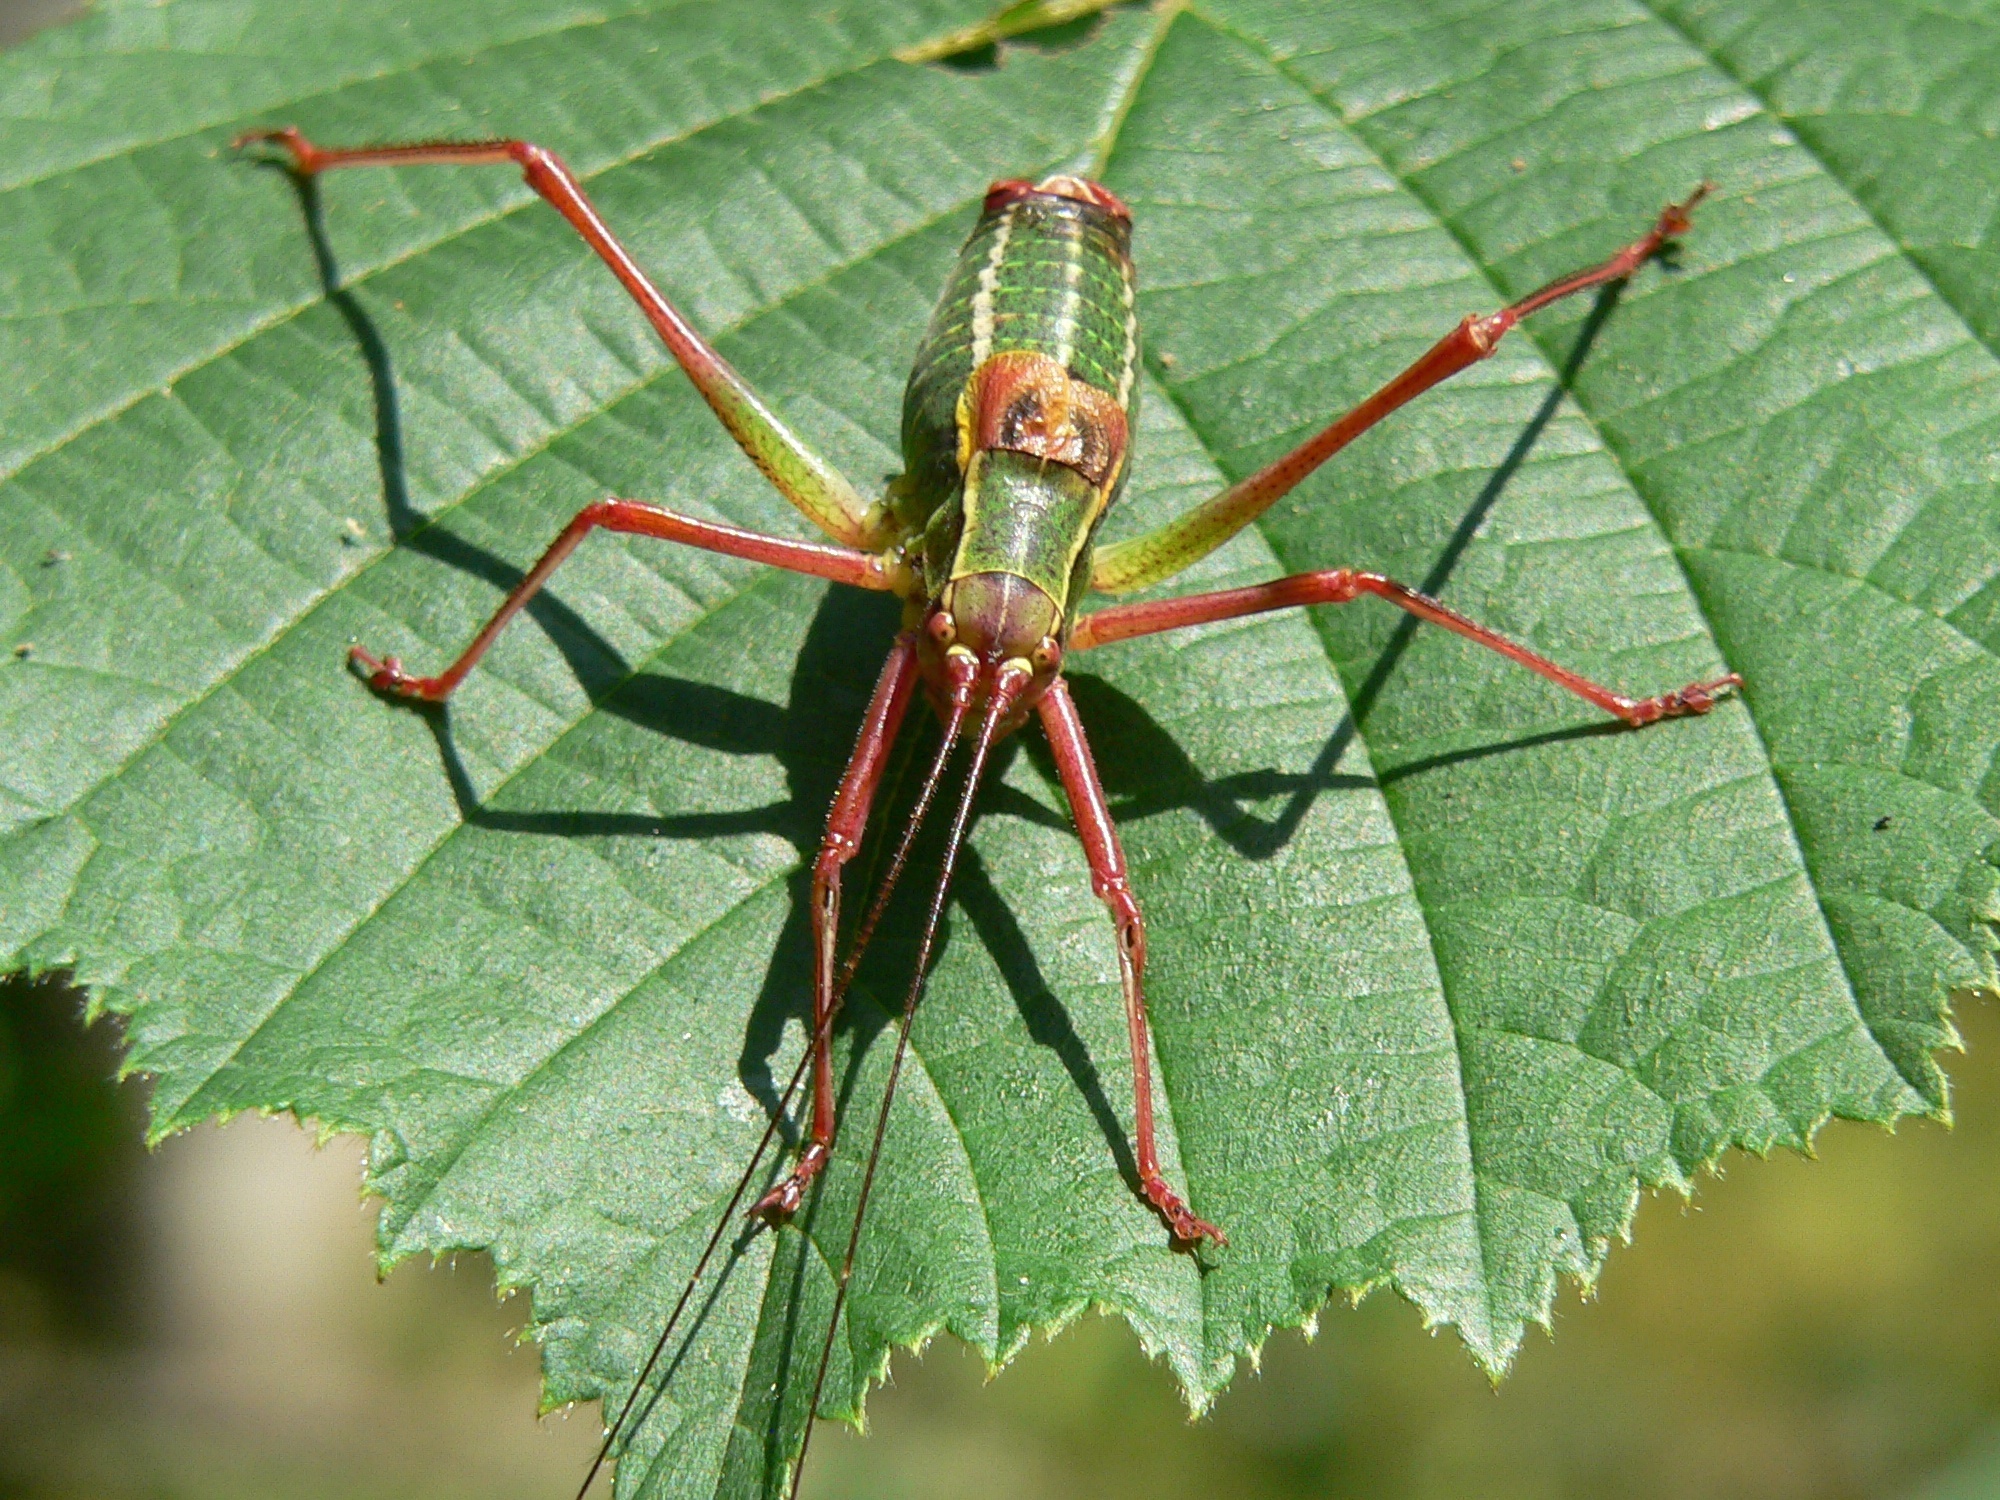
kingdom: Animalia
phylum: Arthropoda
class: Insecta
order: Orthoptera
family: Tettigoniidae
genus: Barbitistes
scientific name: Barbitistes obtusus
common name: Alpine saw bush-cricket
